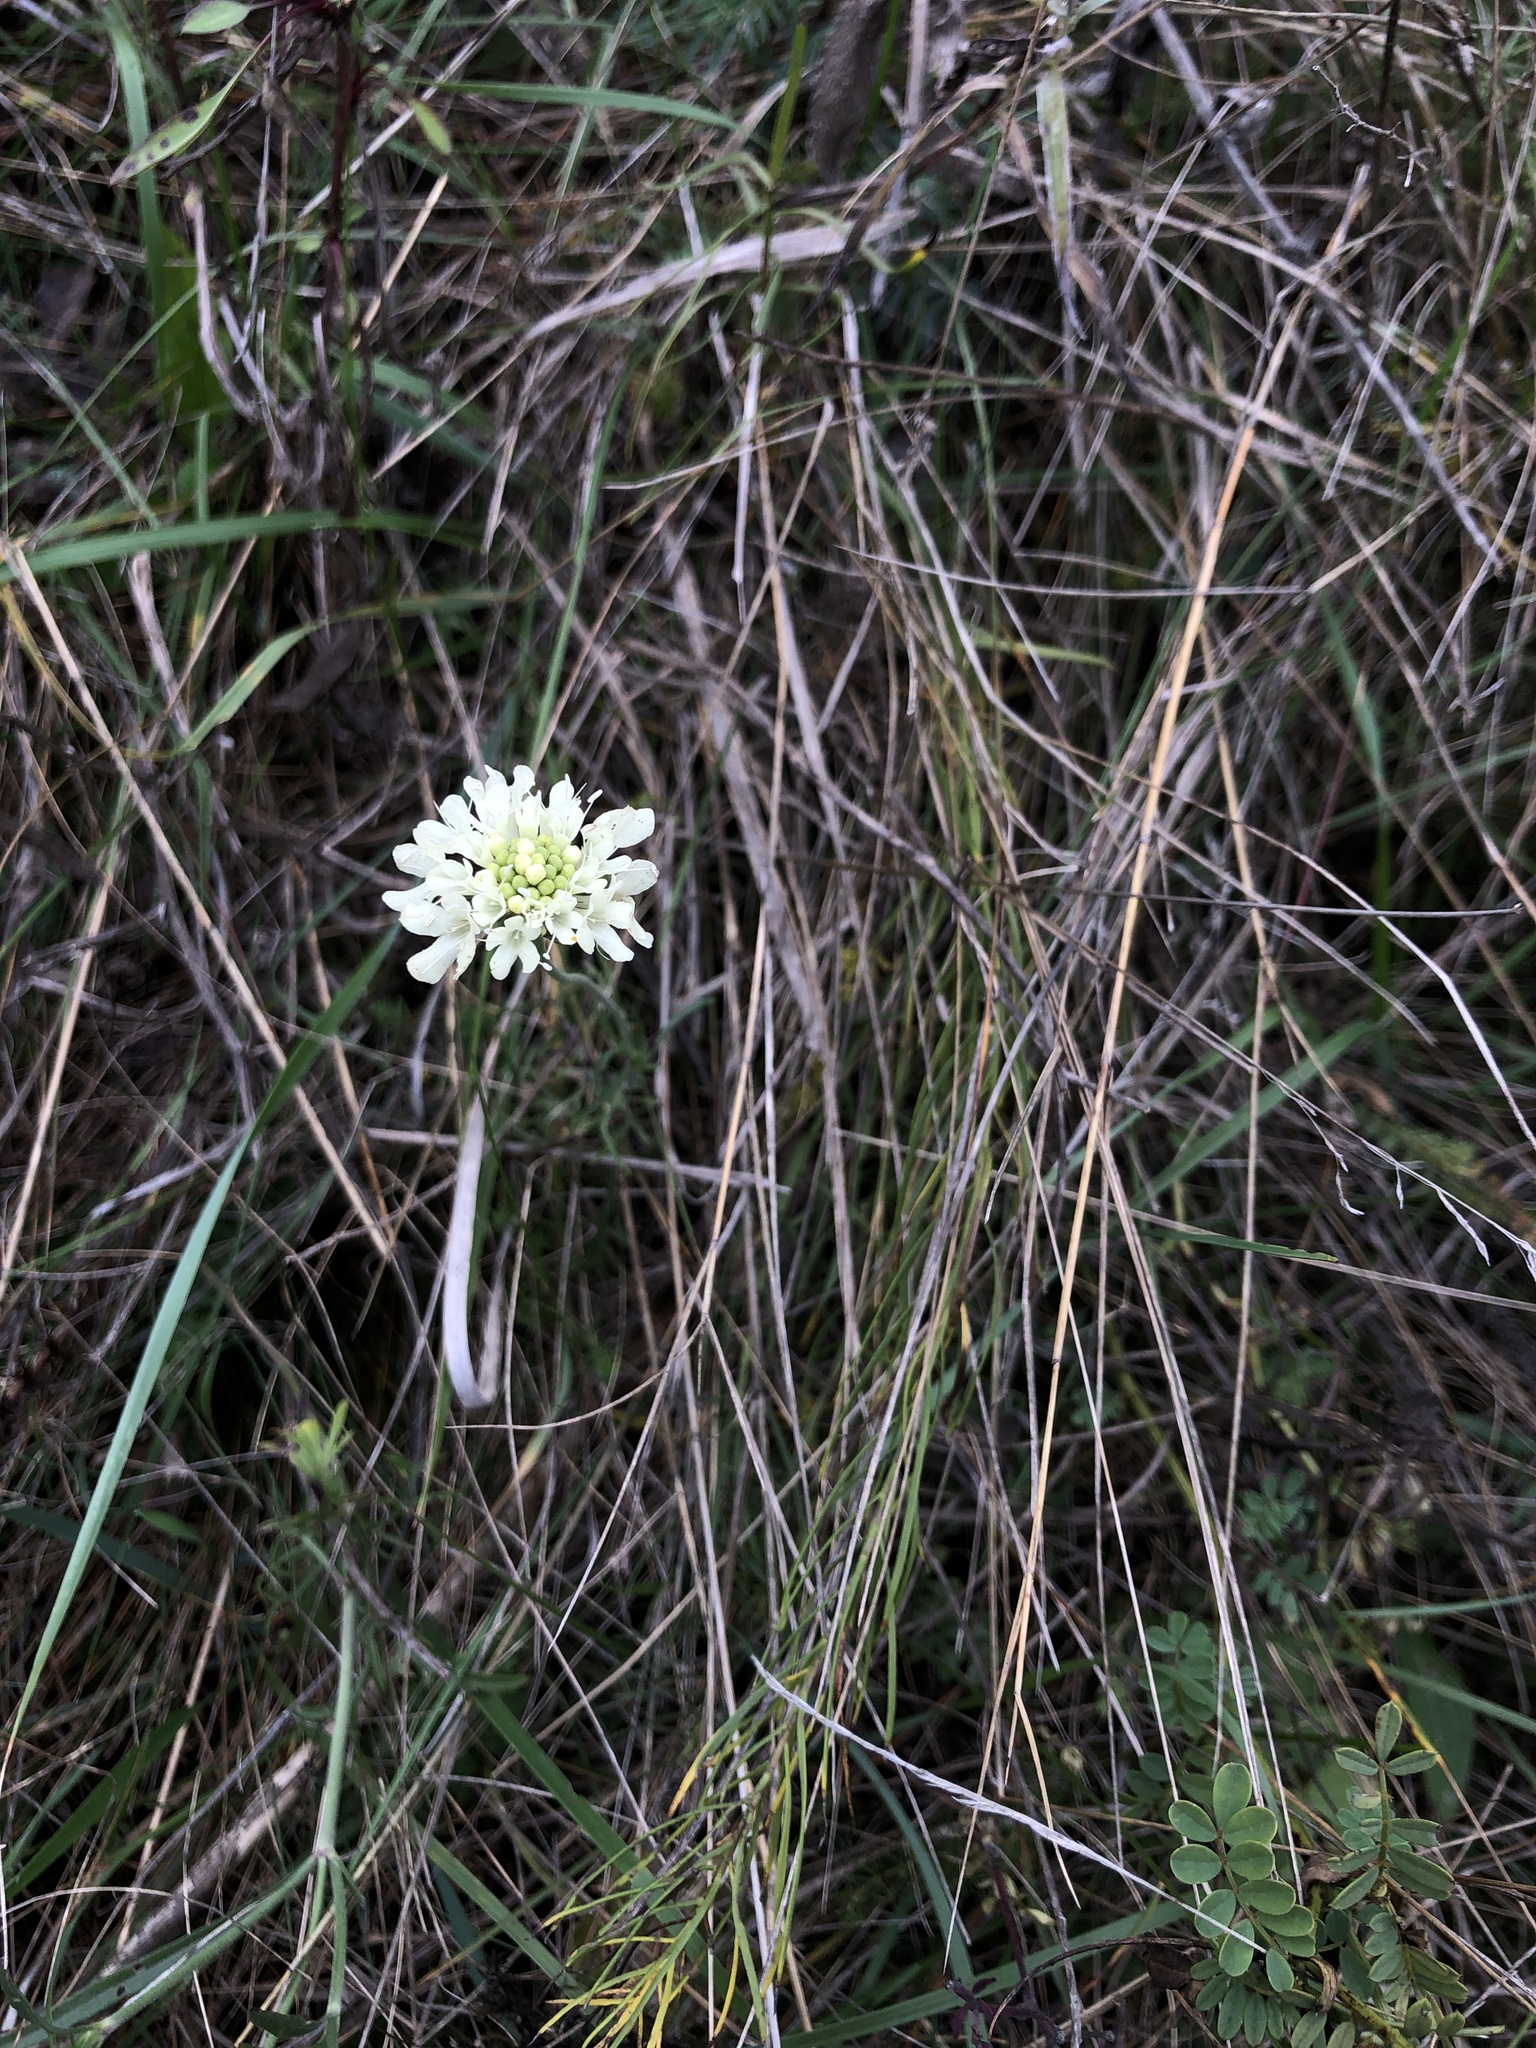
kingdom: Plantae
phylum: Tracheophyta
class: Magnoliopsida
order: Dipsacales
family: Caprifoliaceae
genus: Scabiosa
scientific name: Scabiosa ochroleuca
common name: Cream pincushions
